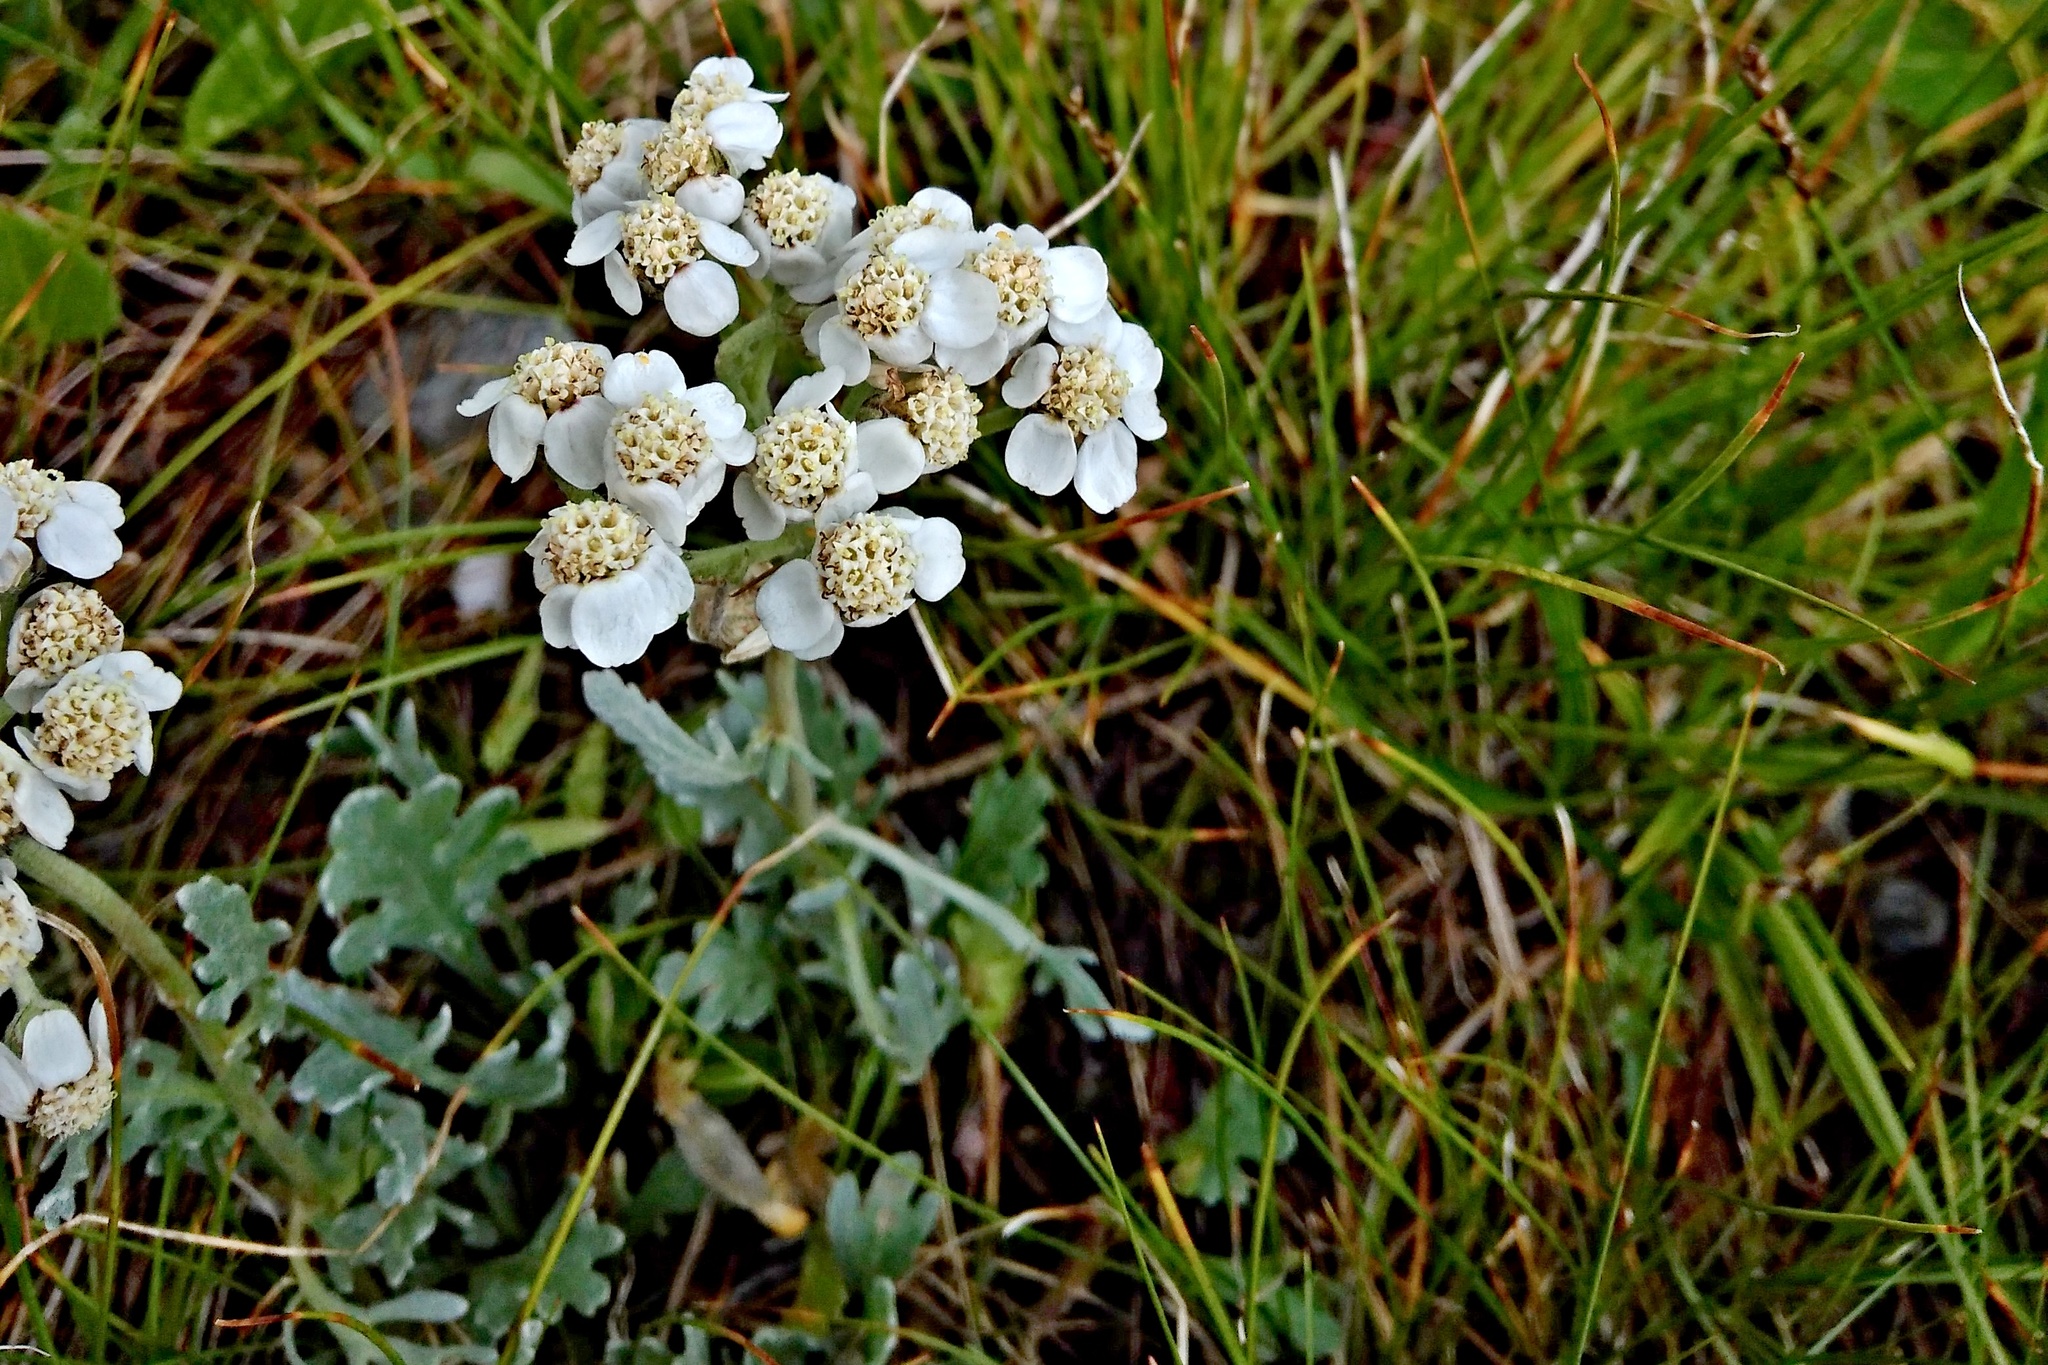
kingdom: Plantae
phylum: Tracheophyta
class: Magnoliopsida
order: Asterales
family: Asteraceae
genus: Achillea
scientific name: Achillea clavennae
